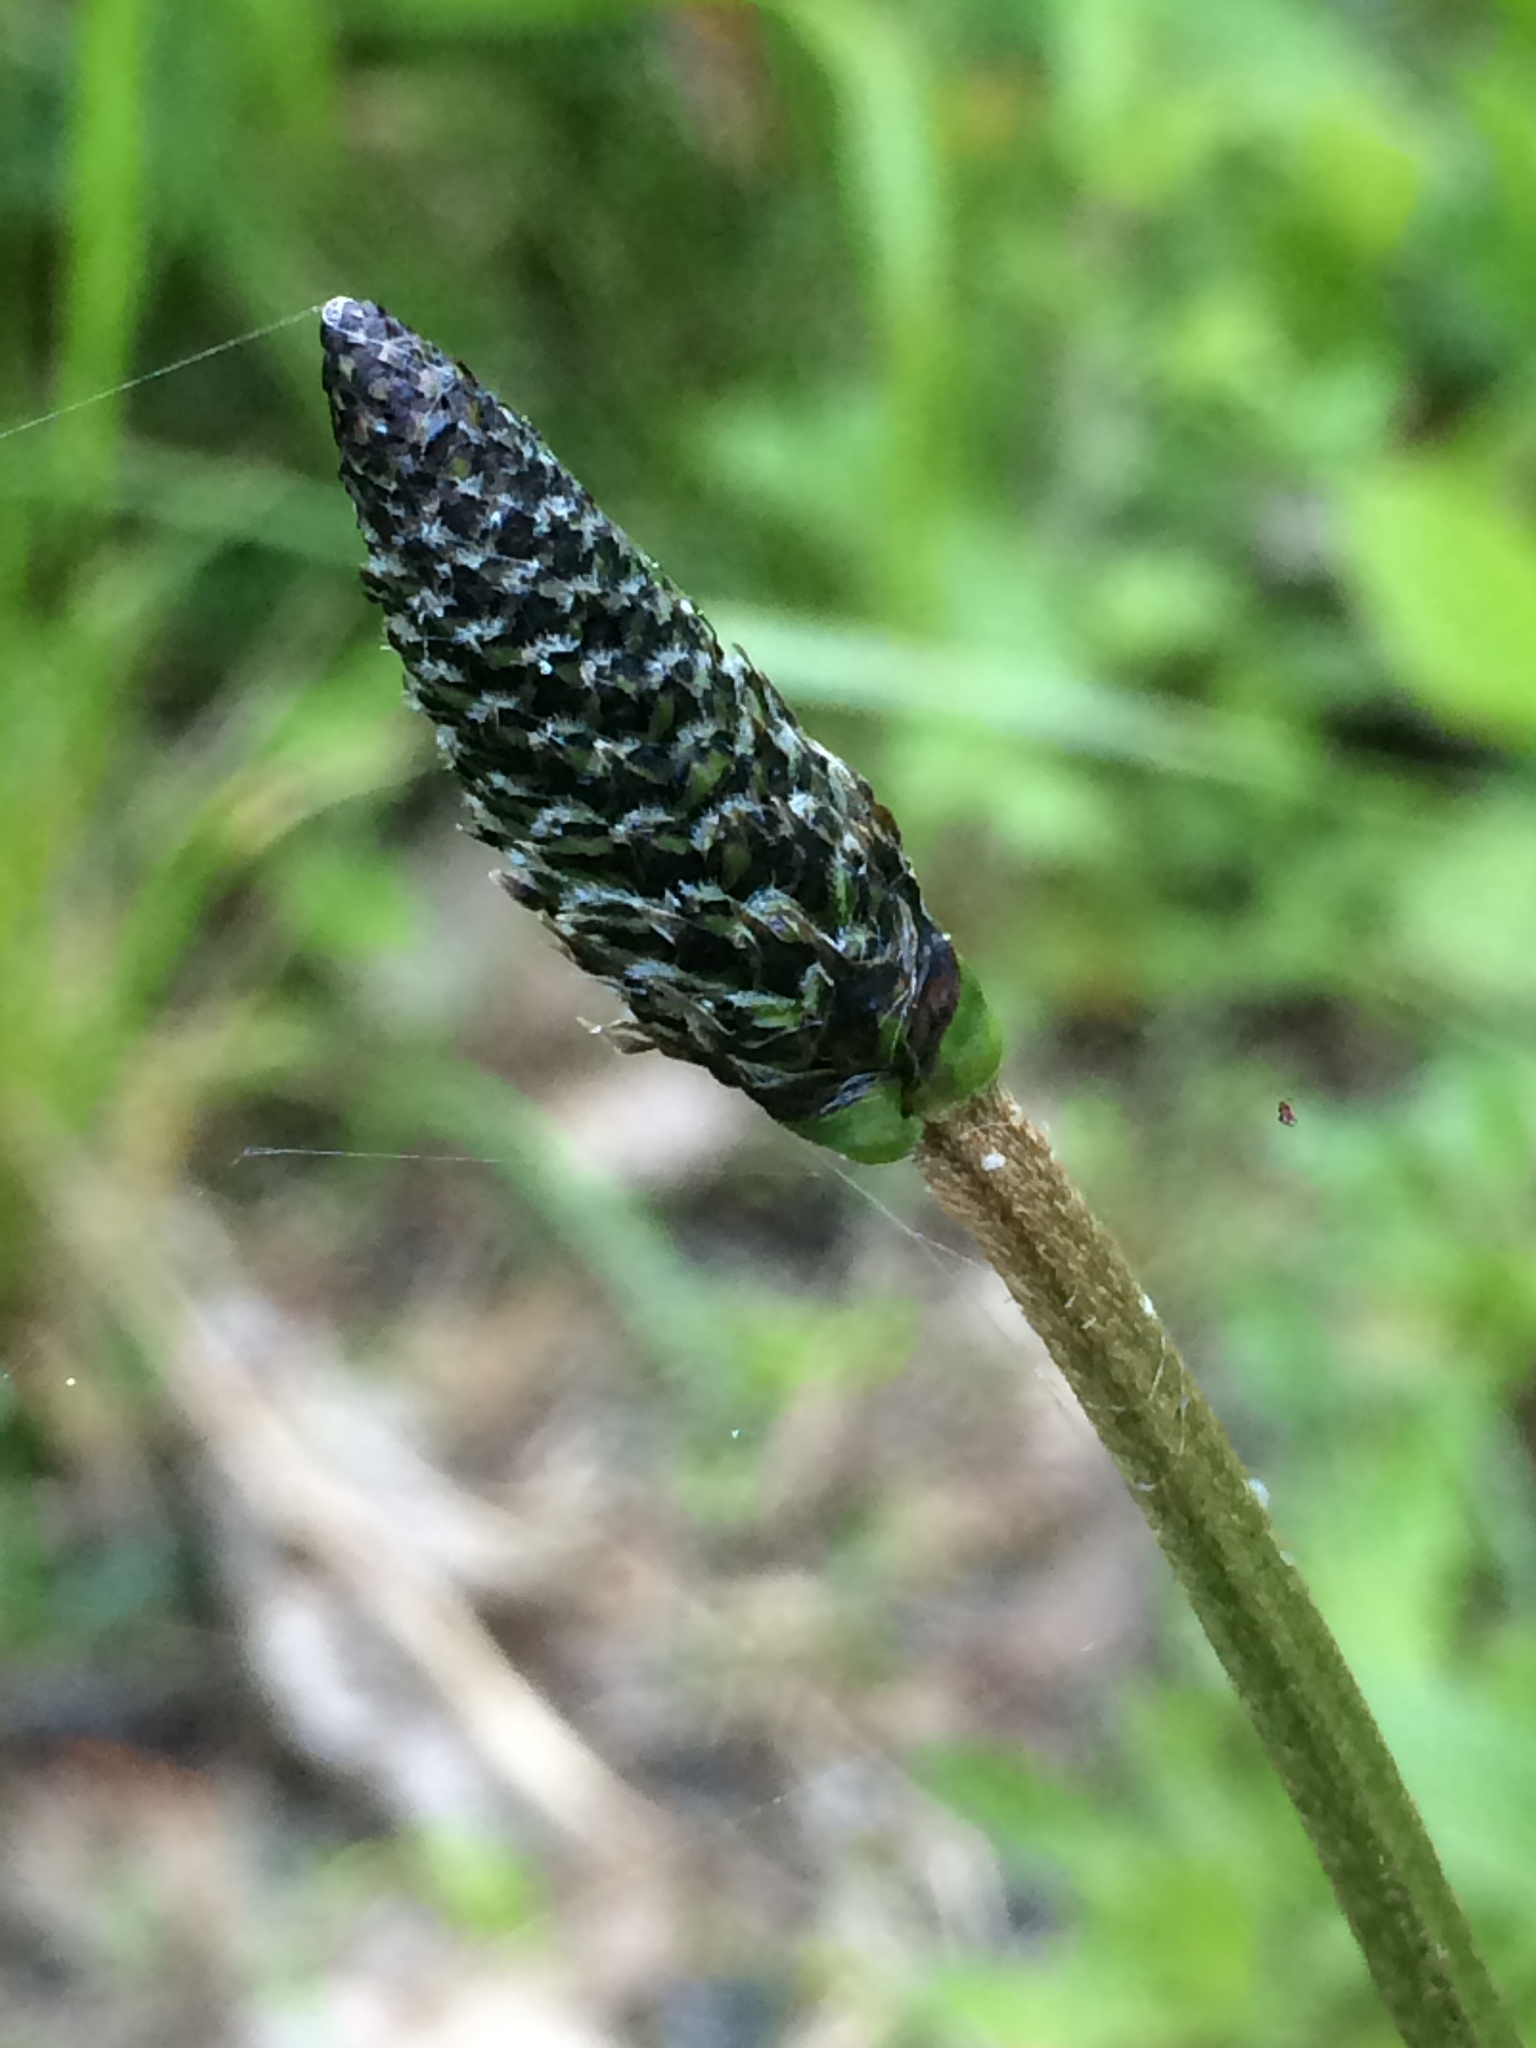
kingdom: Plantae
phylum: Tracheophyta
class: Magnoliopsida
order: Lamiales
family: Plantaginaceae
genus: Plantago
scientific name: Plantago lanceolata
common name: Ribwort plantain
